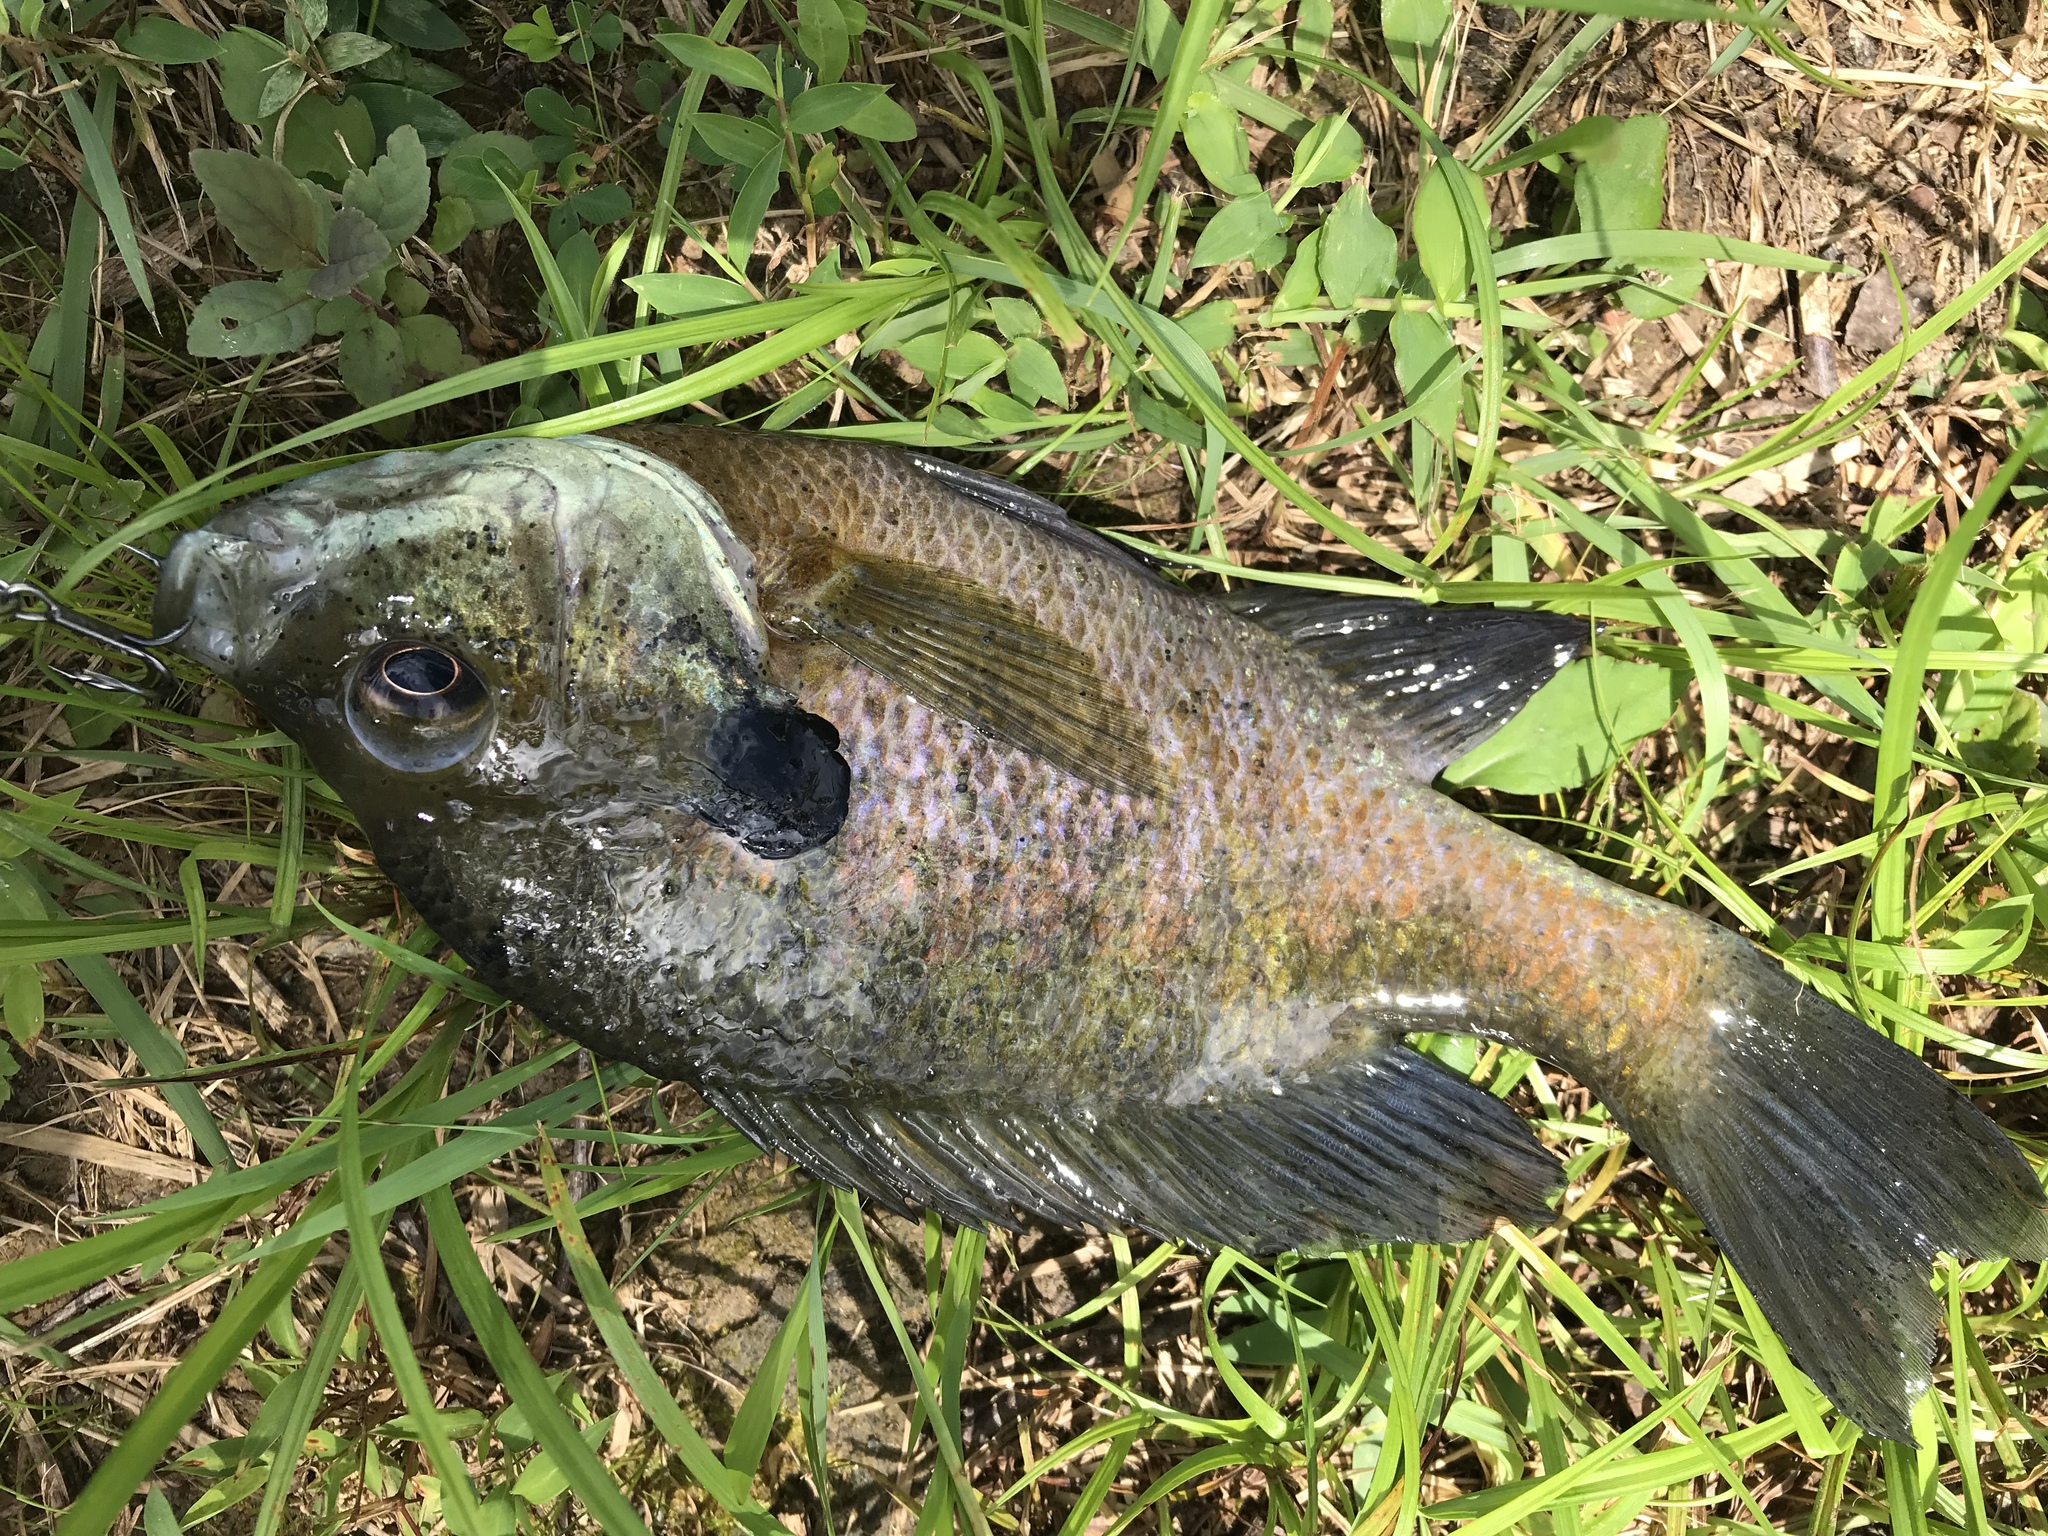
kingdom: Animalia
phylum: Chordata
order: Perciformes
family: Centrarchidae
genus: Lepomis
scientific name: Lepomis macrochirus
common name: Bluegill
